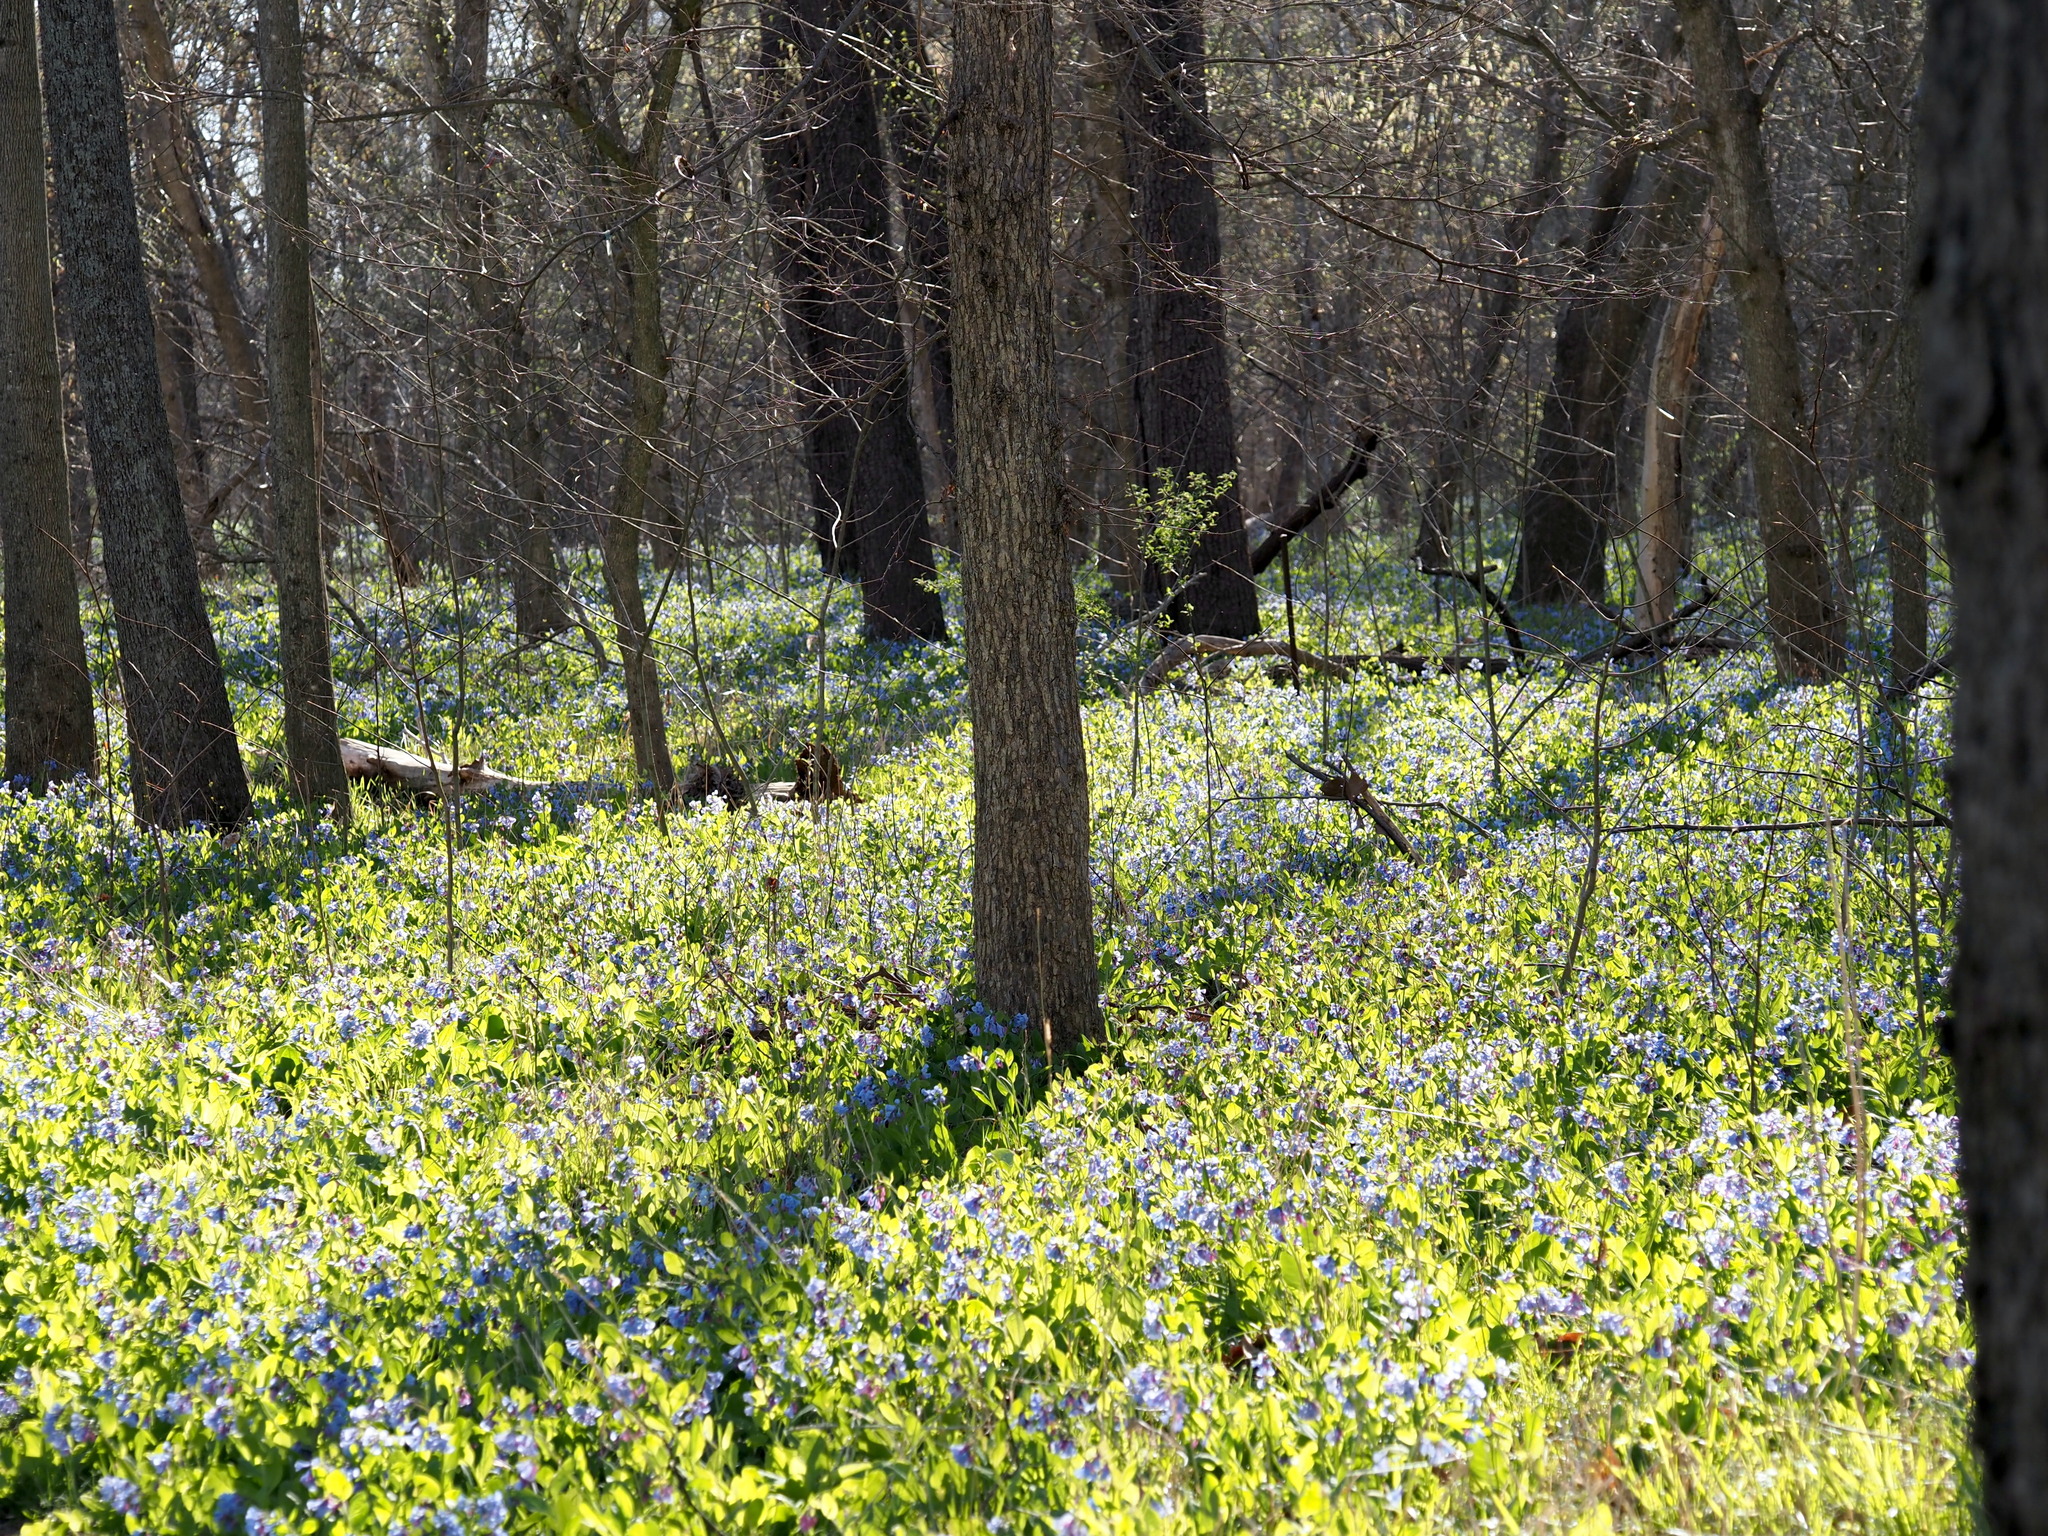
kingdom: Plantae
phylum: Tracheophyta
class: Magnoliopsida
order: Boraginales
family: Boraginaceae
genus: Mertensia
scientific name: Mertensia virginica
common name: Virginia bluebells
